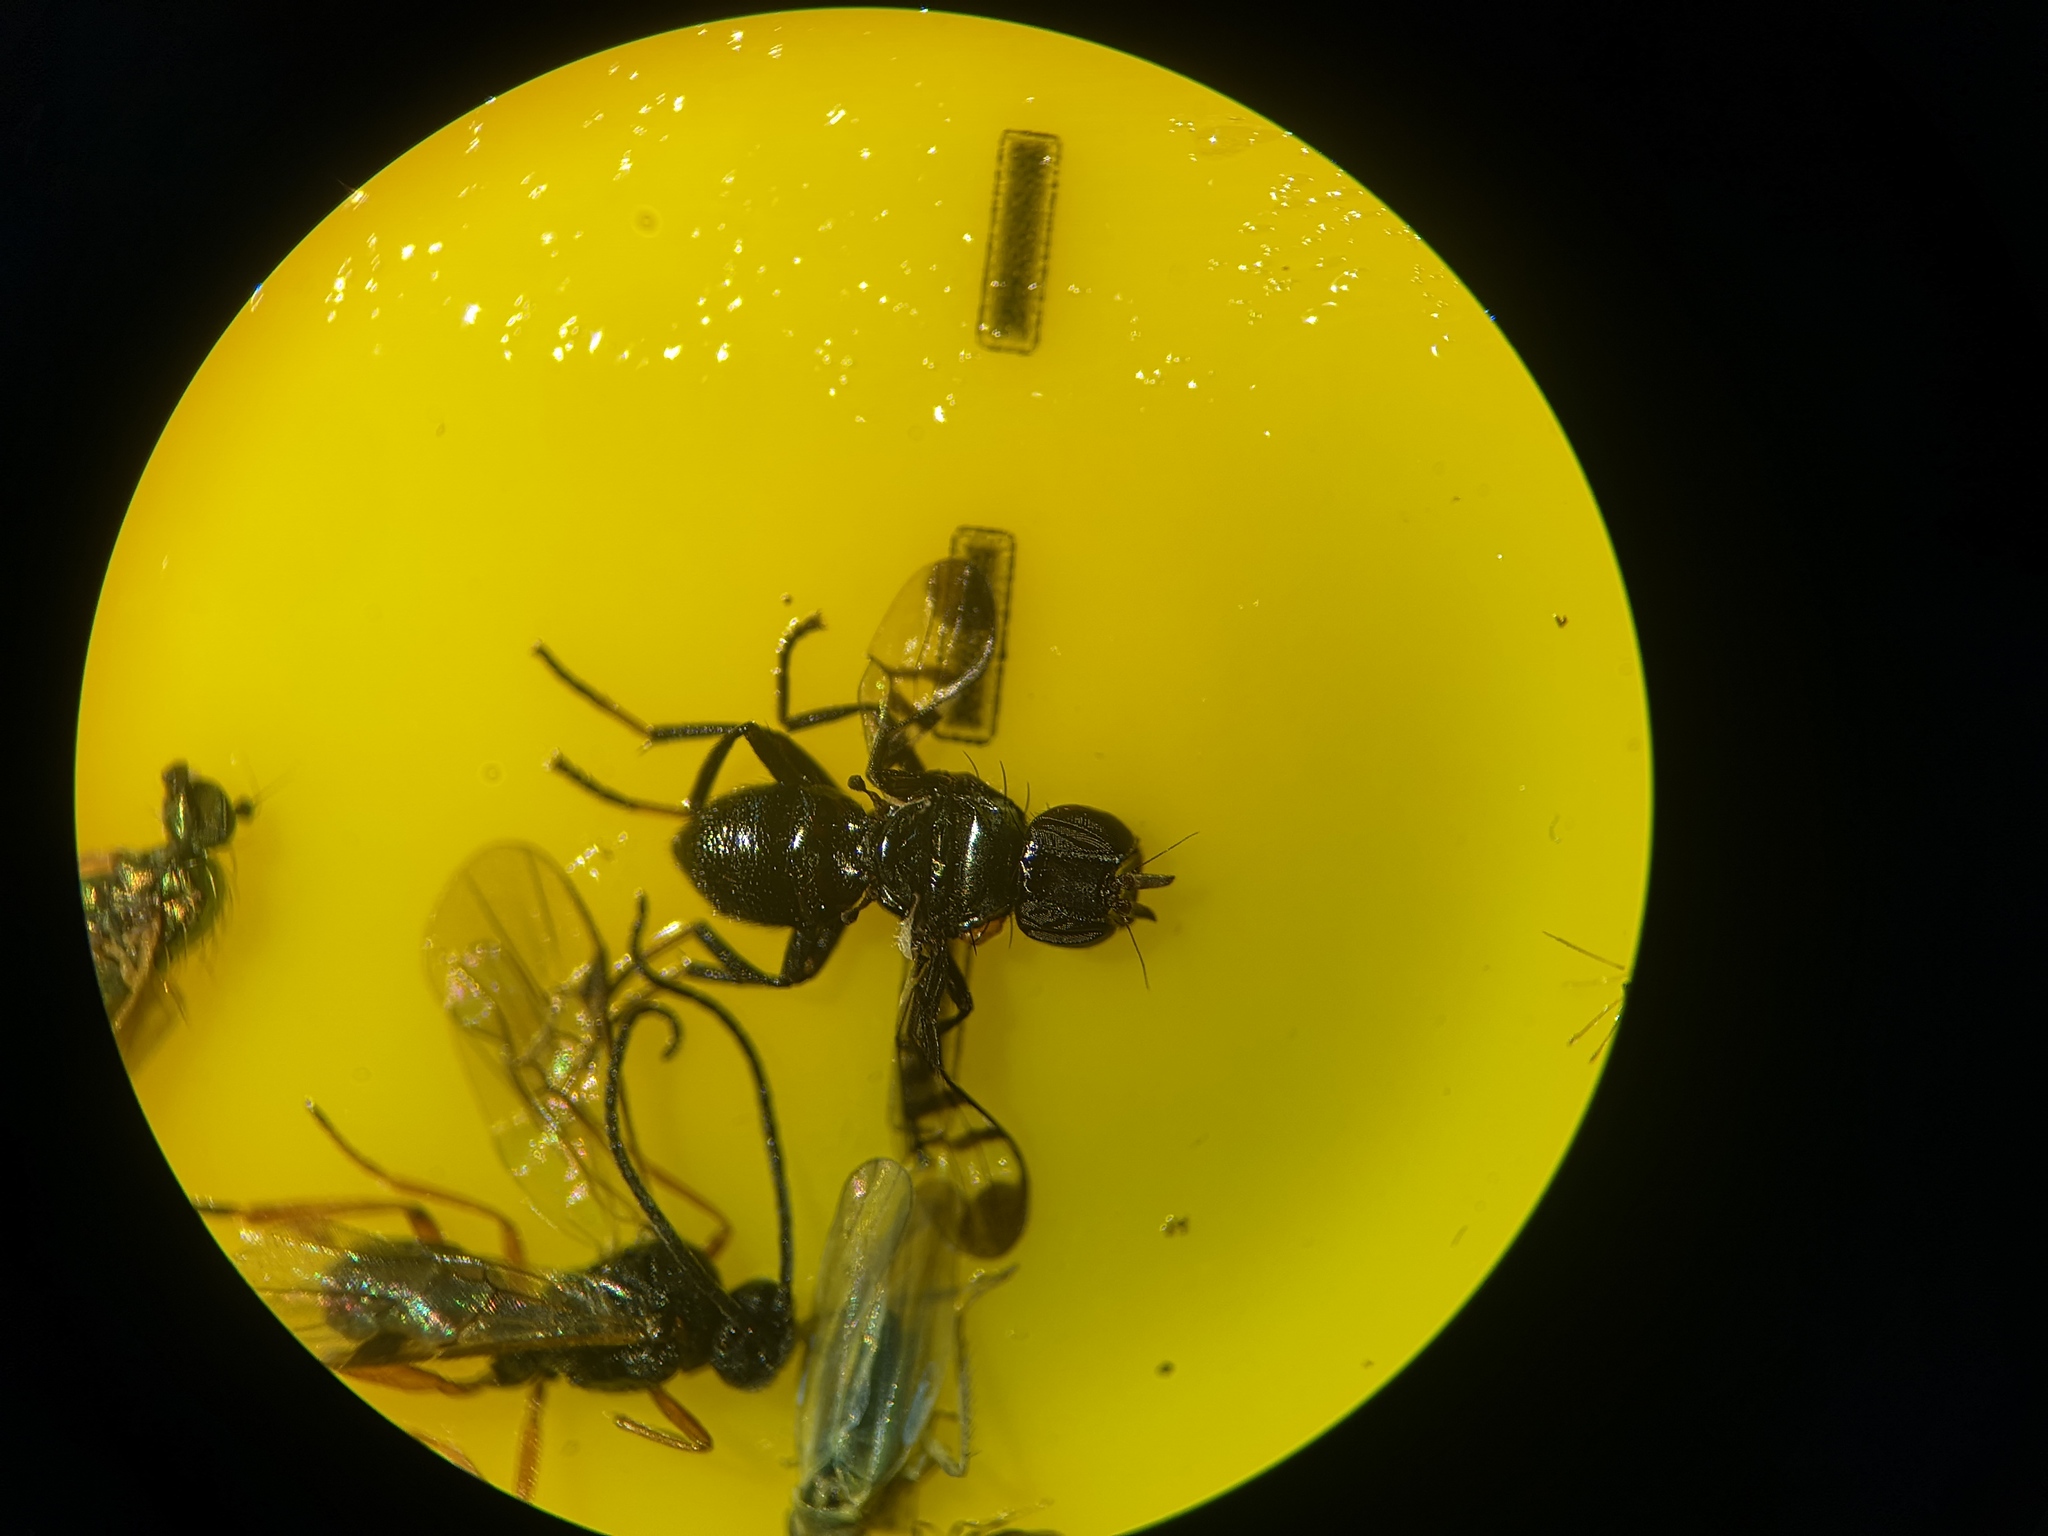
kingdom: Animalia
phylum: Arthropoda
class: Insecta
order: Diptera
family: Platystomatidae
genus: Rivellia
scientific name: Rivellia syngenesiae
